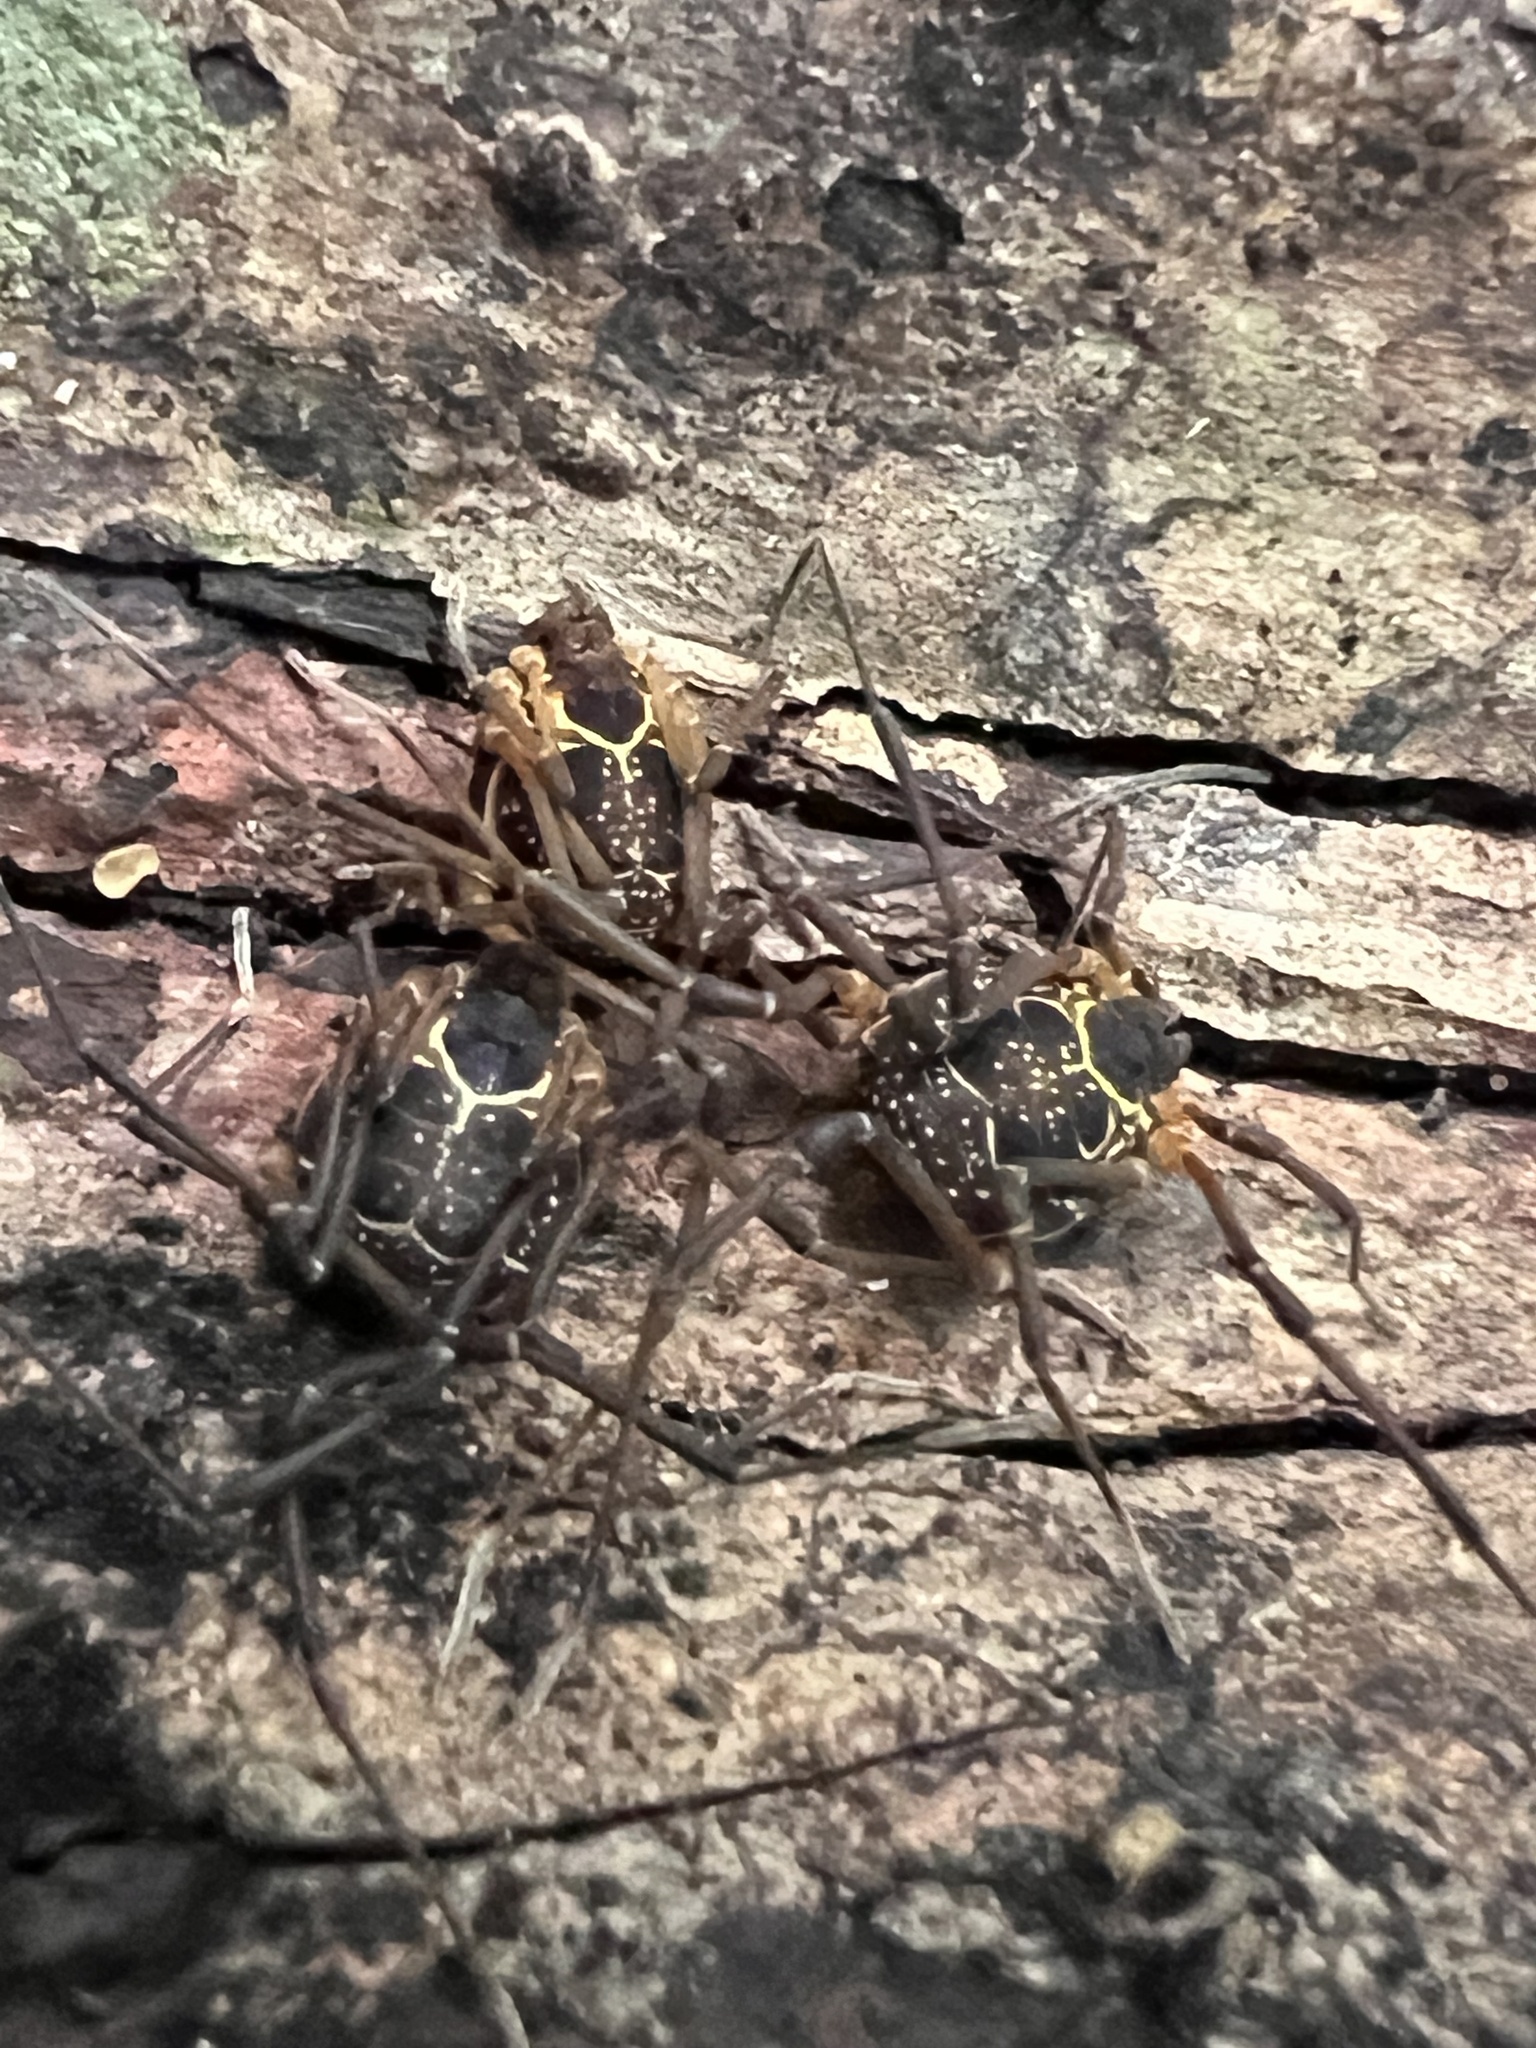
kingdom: Animalia
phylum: Arthropoda
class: Arachnida
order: Opiliones
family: Cosmetidae
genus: Eucynortula
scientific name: Eucynortula albipunctata
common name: Harvestmen
